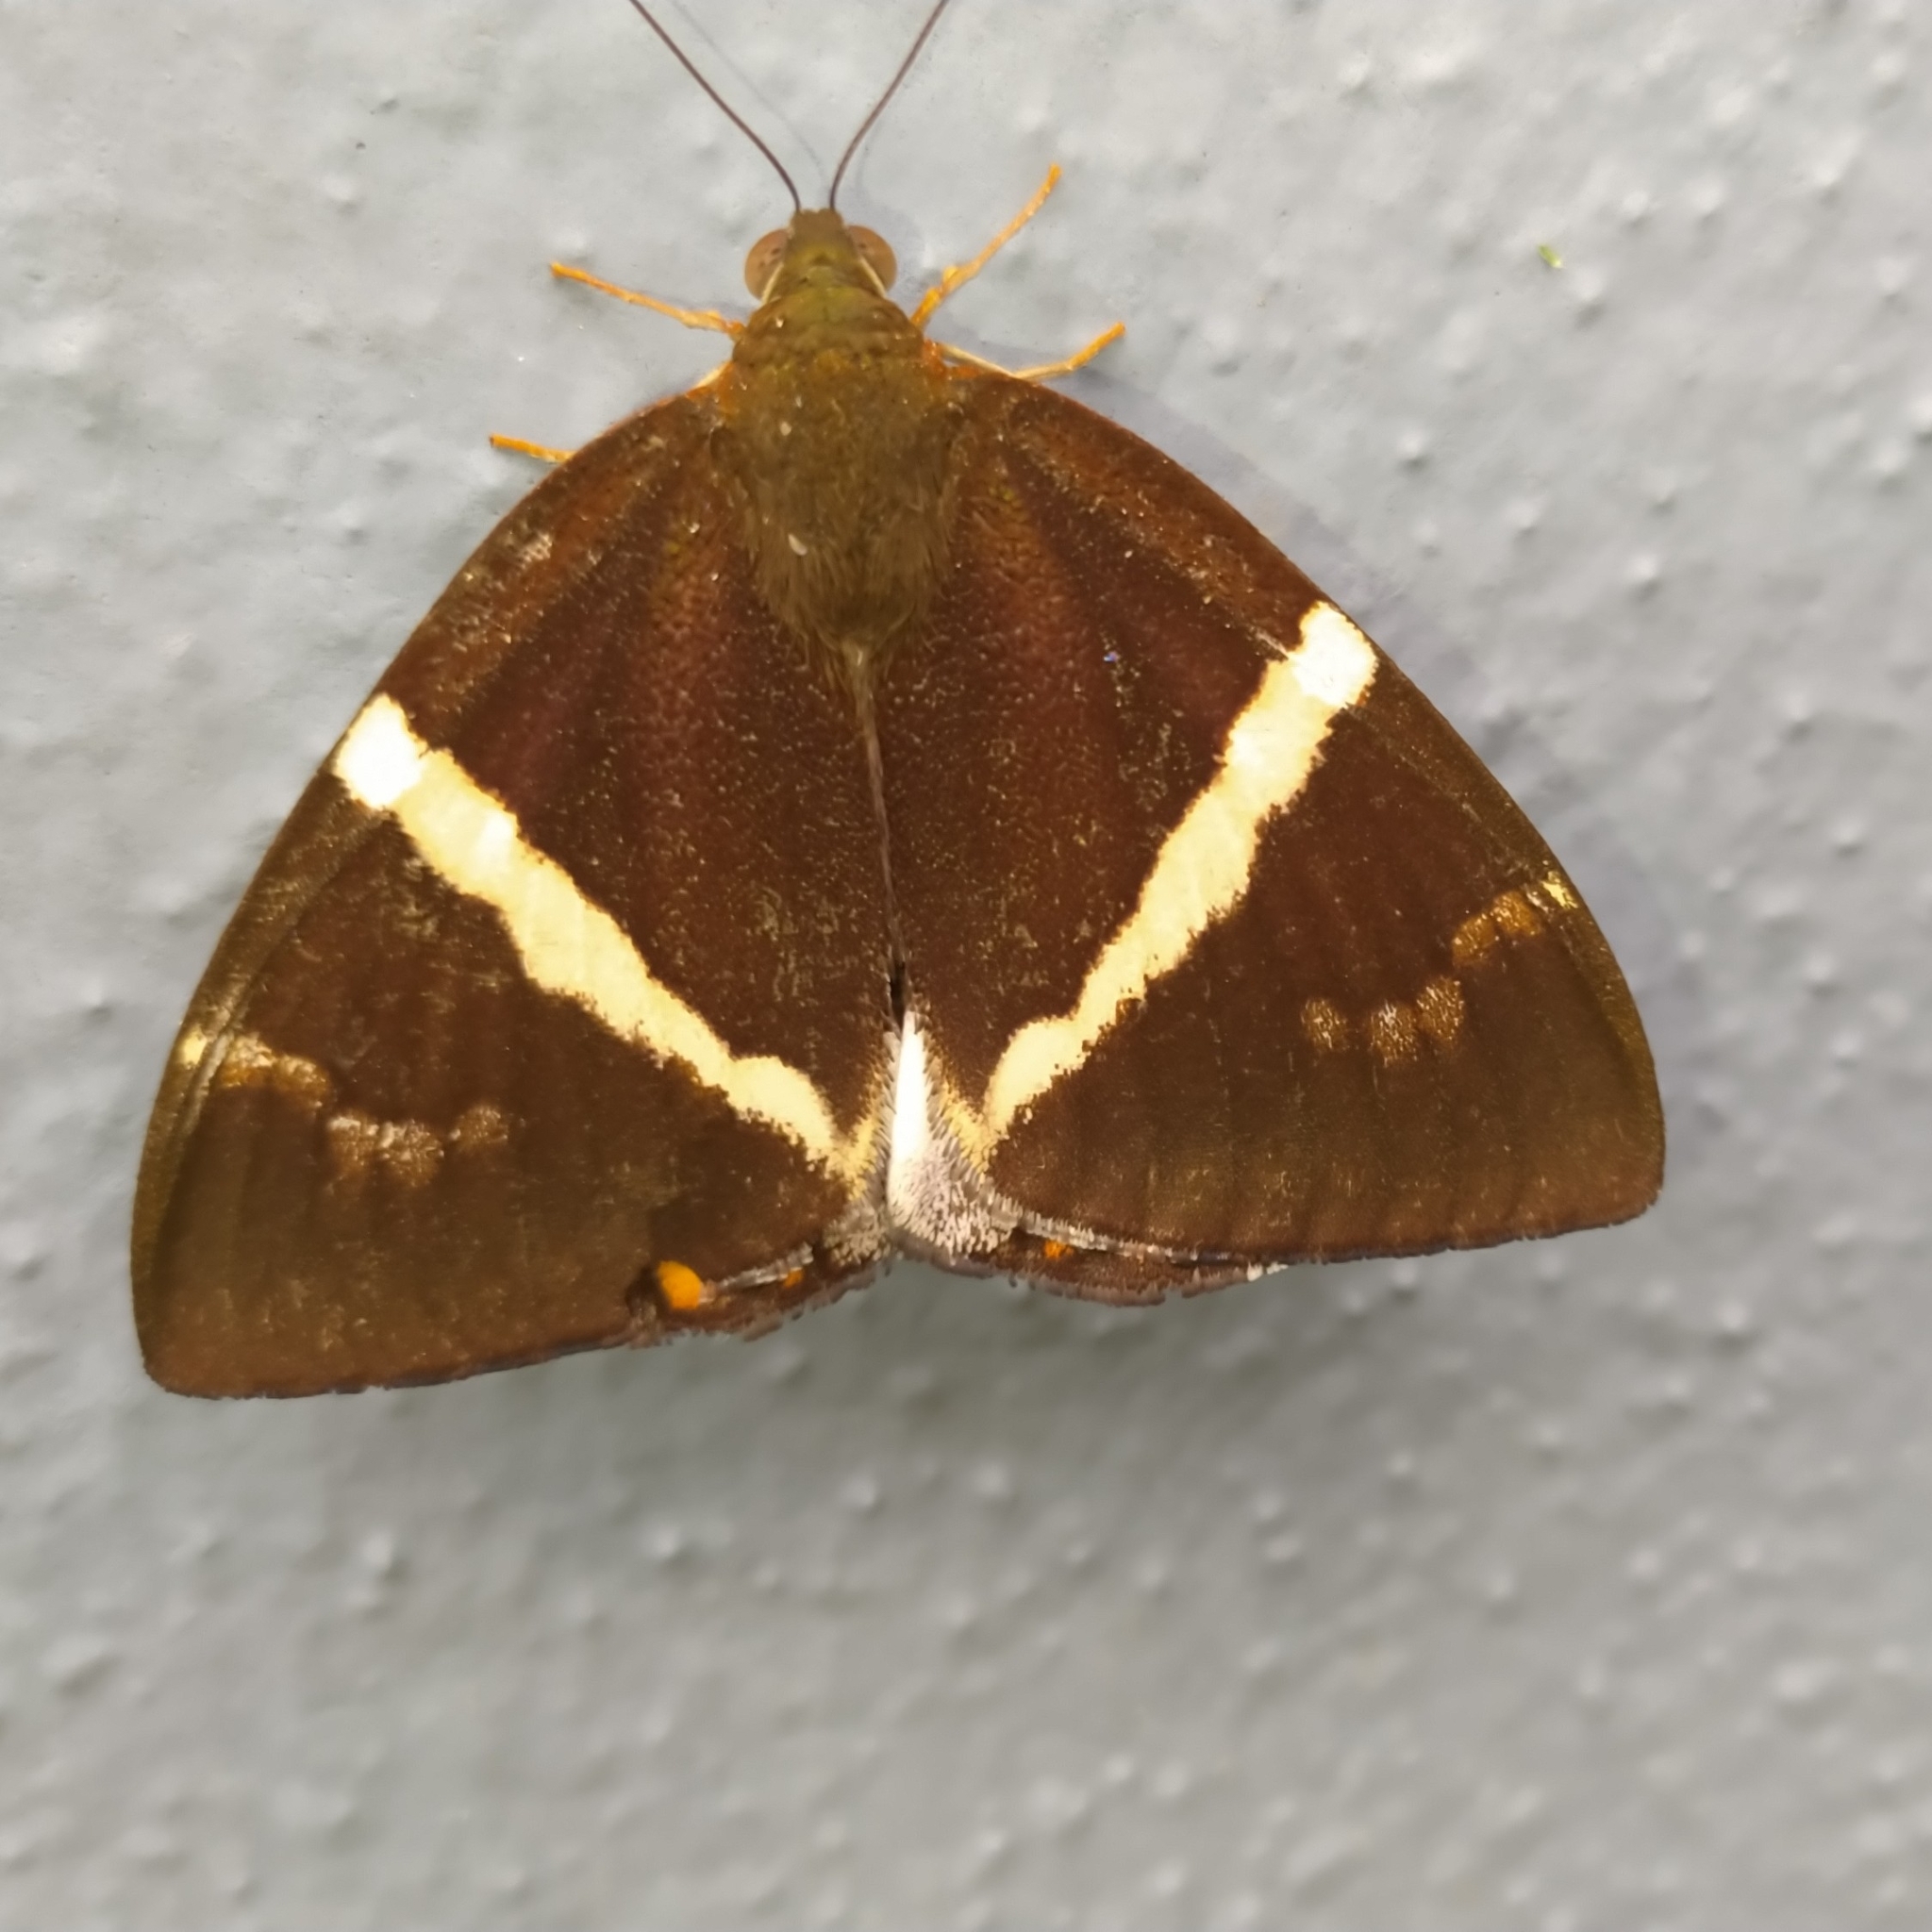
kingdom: Animalia
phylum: Arthropoda
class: Insecta
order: Lepidoptera
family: Castniidae
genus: Castnia
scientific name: Castnia licus
